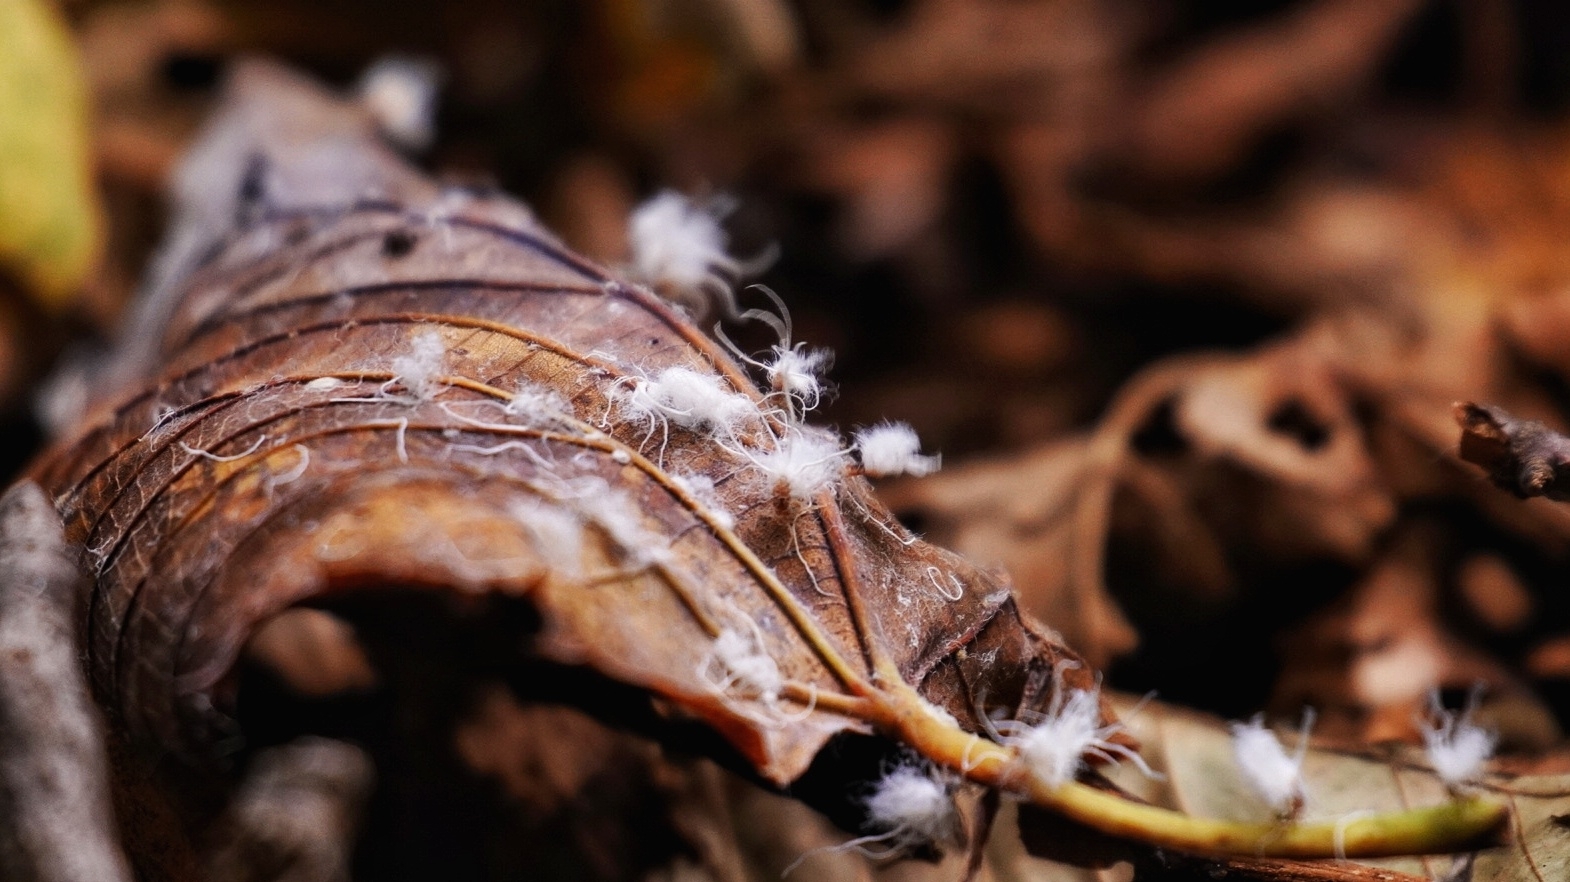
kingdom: Animalia
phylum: Arthropoda
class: Insecta
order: Hemiptera
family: Aphididae
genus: Grylloprociphilus
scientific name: Grylloprociphilus imbricator
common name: Beech blight aphid
